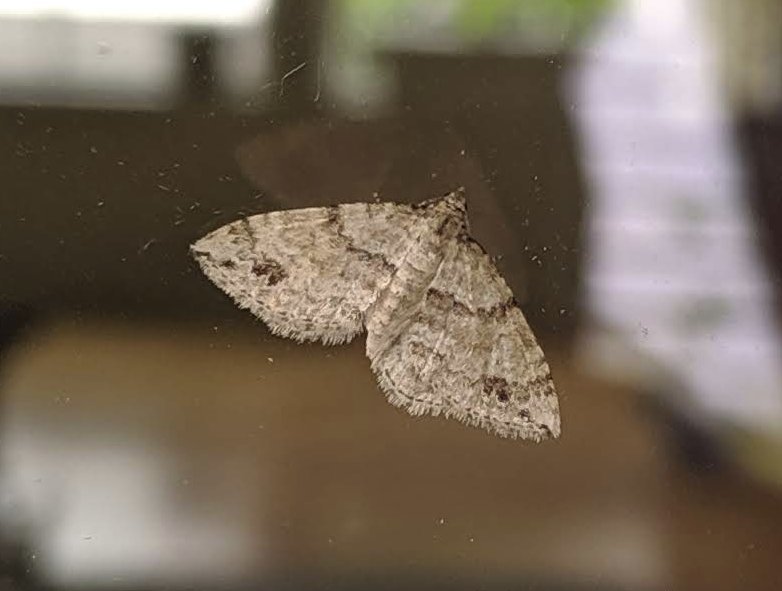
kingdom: Animalia
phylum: Arthropoda
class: Insecta
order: Lepidoptera
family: Geometridae
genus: Perizoma
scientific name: Perizoma didymata
